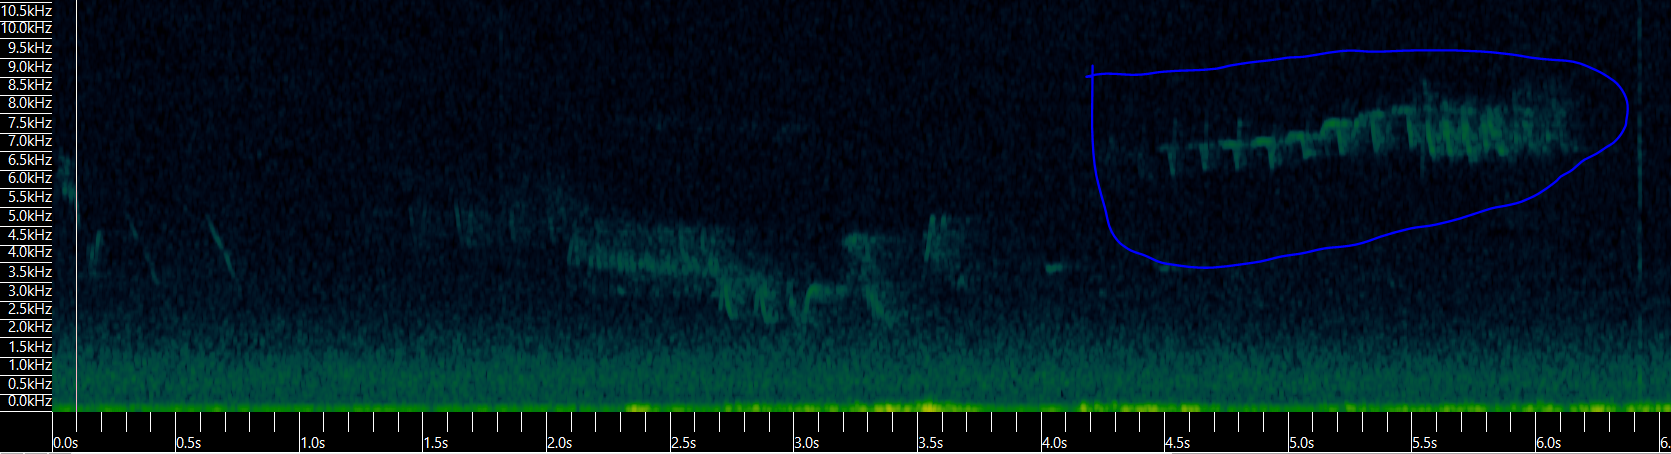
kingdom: Animalia
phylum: Chordata
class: Aves
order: Passeriformes
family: Regulidae
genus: Regulus
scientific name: Regulus ignicapilla
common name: Firecrest
